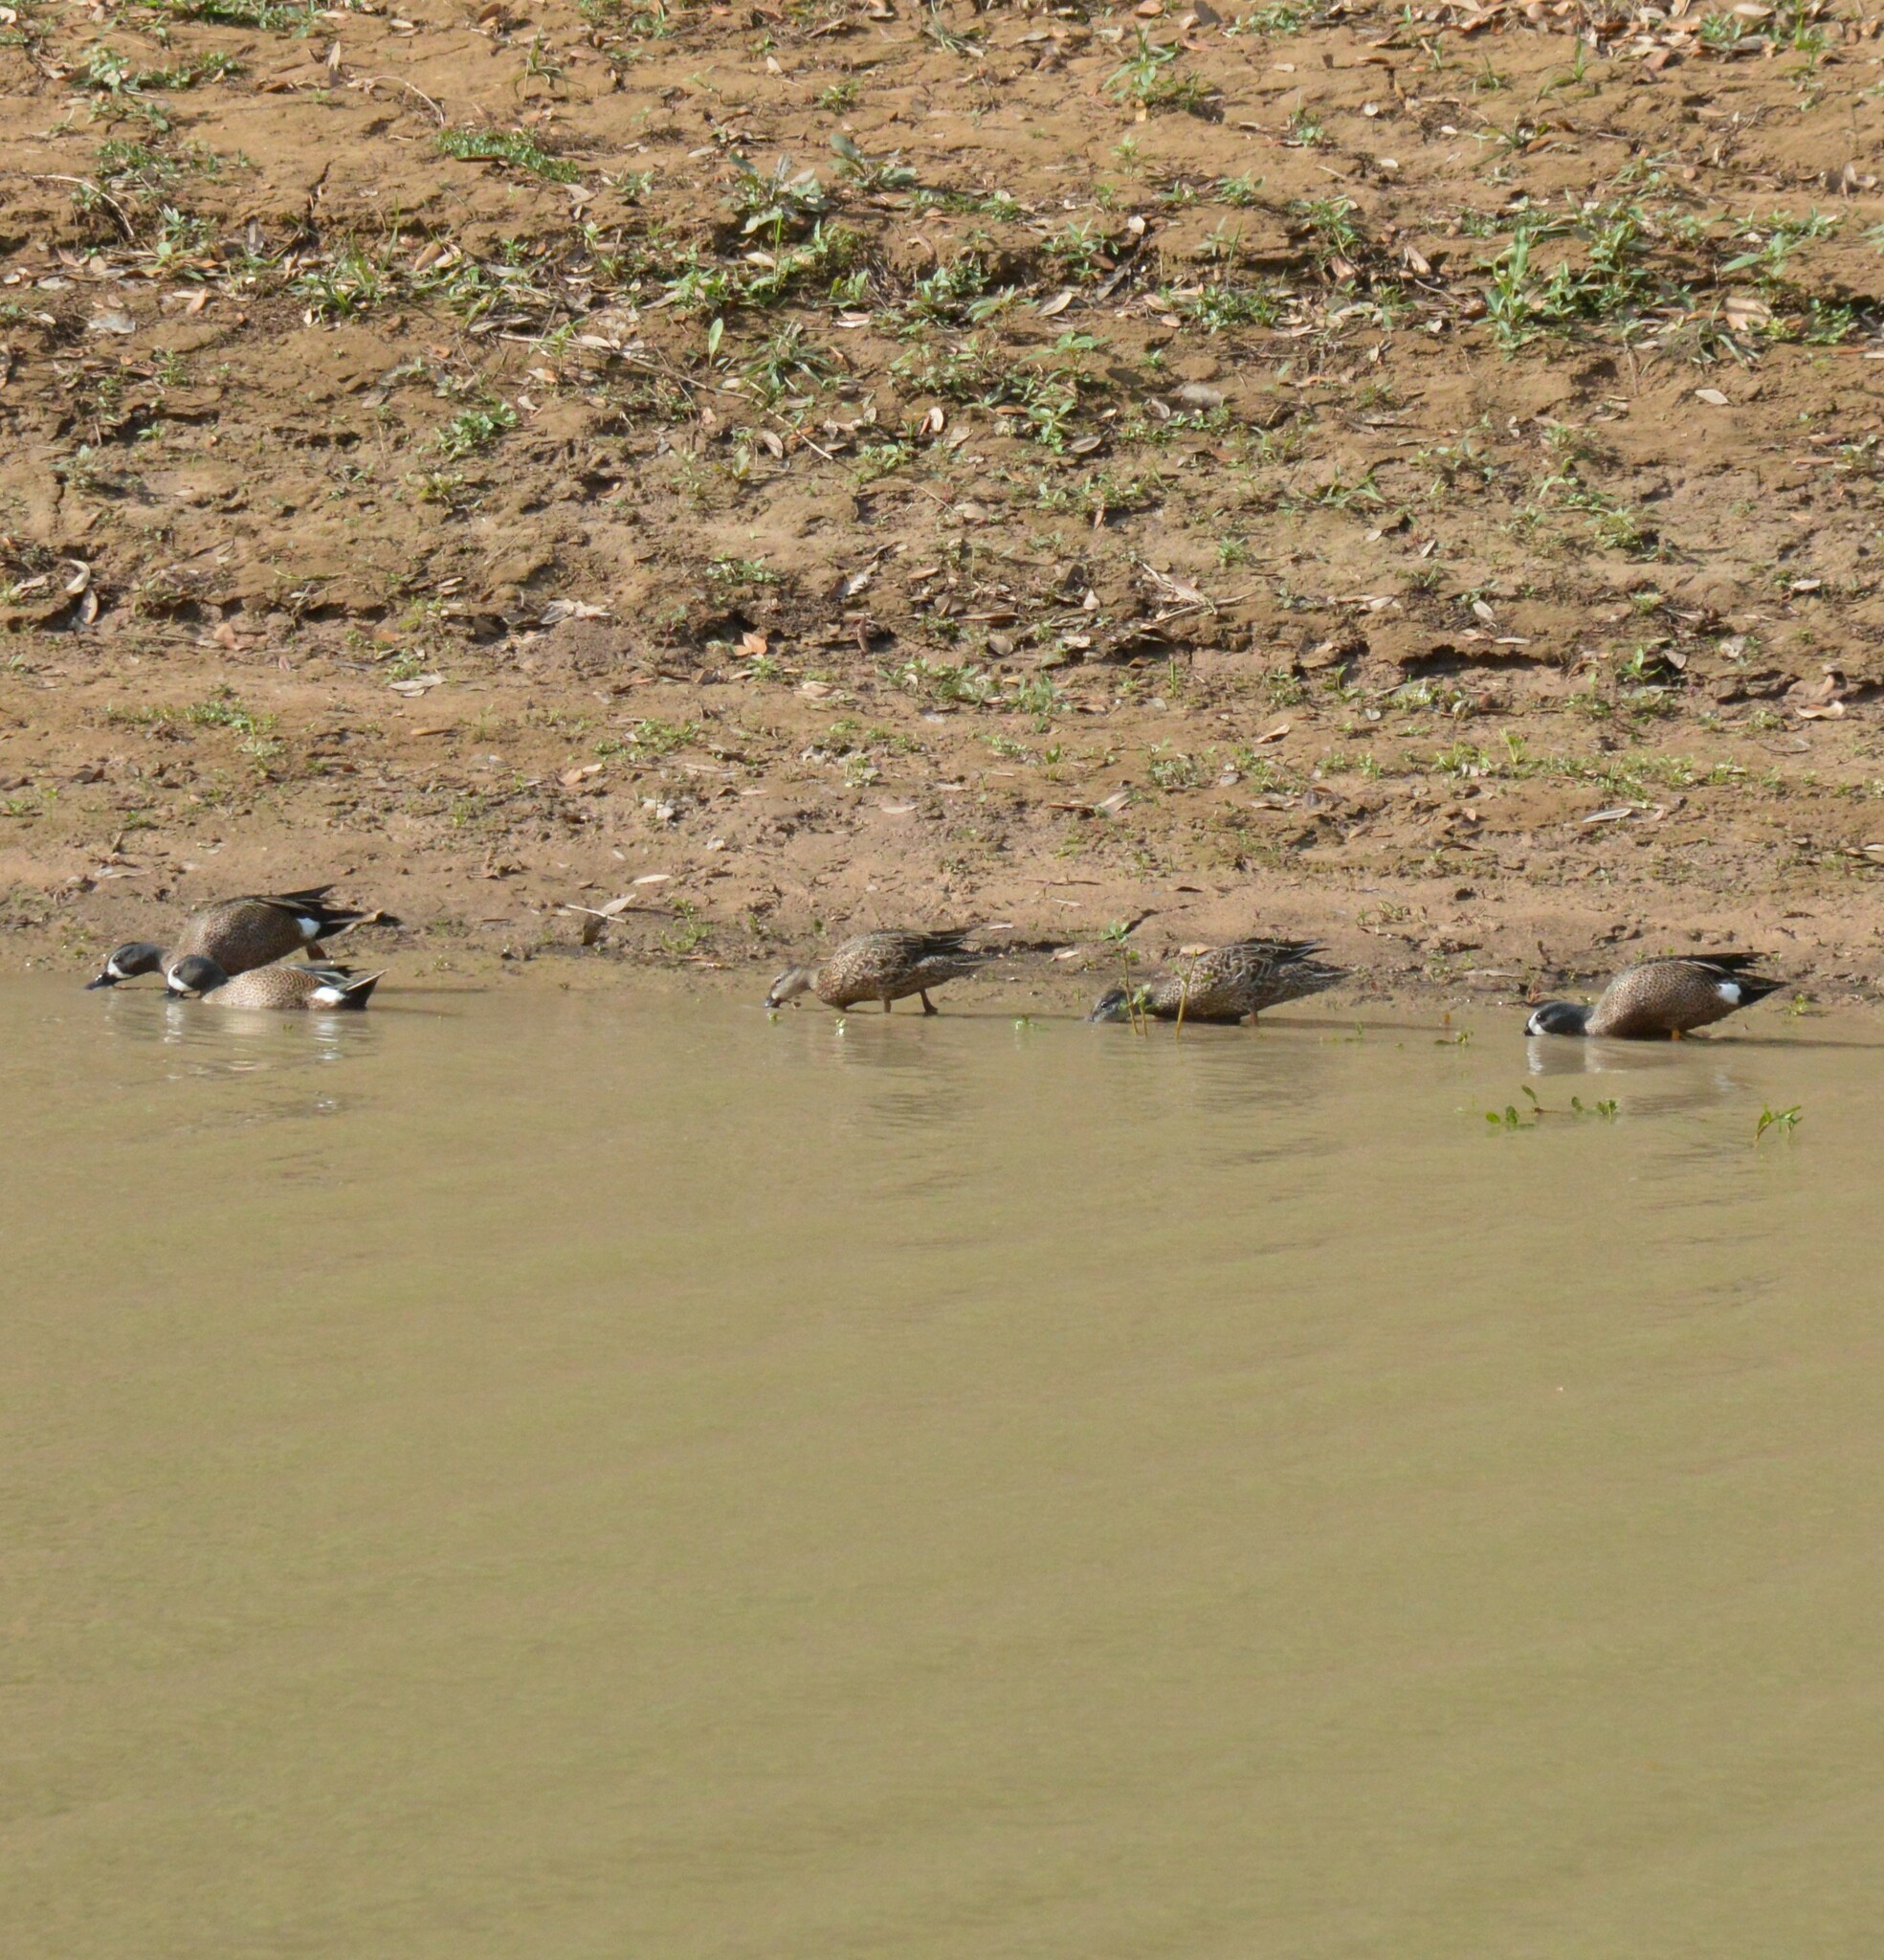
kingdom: Animalia
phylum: Chordata
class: Aves
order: Anseriformes
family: Anatidae
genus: Spatula
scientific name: Spatula discors
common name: Blue-winged teal
